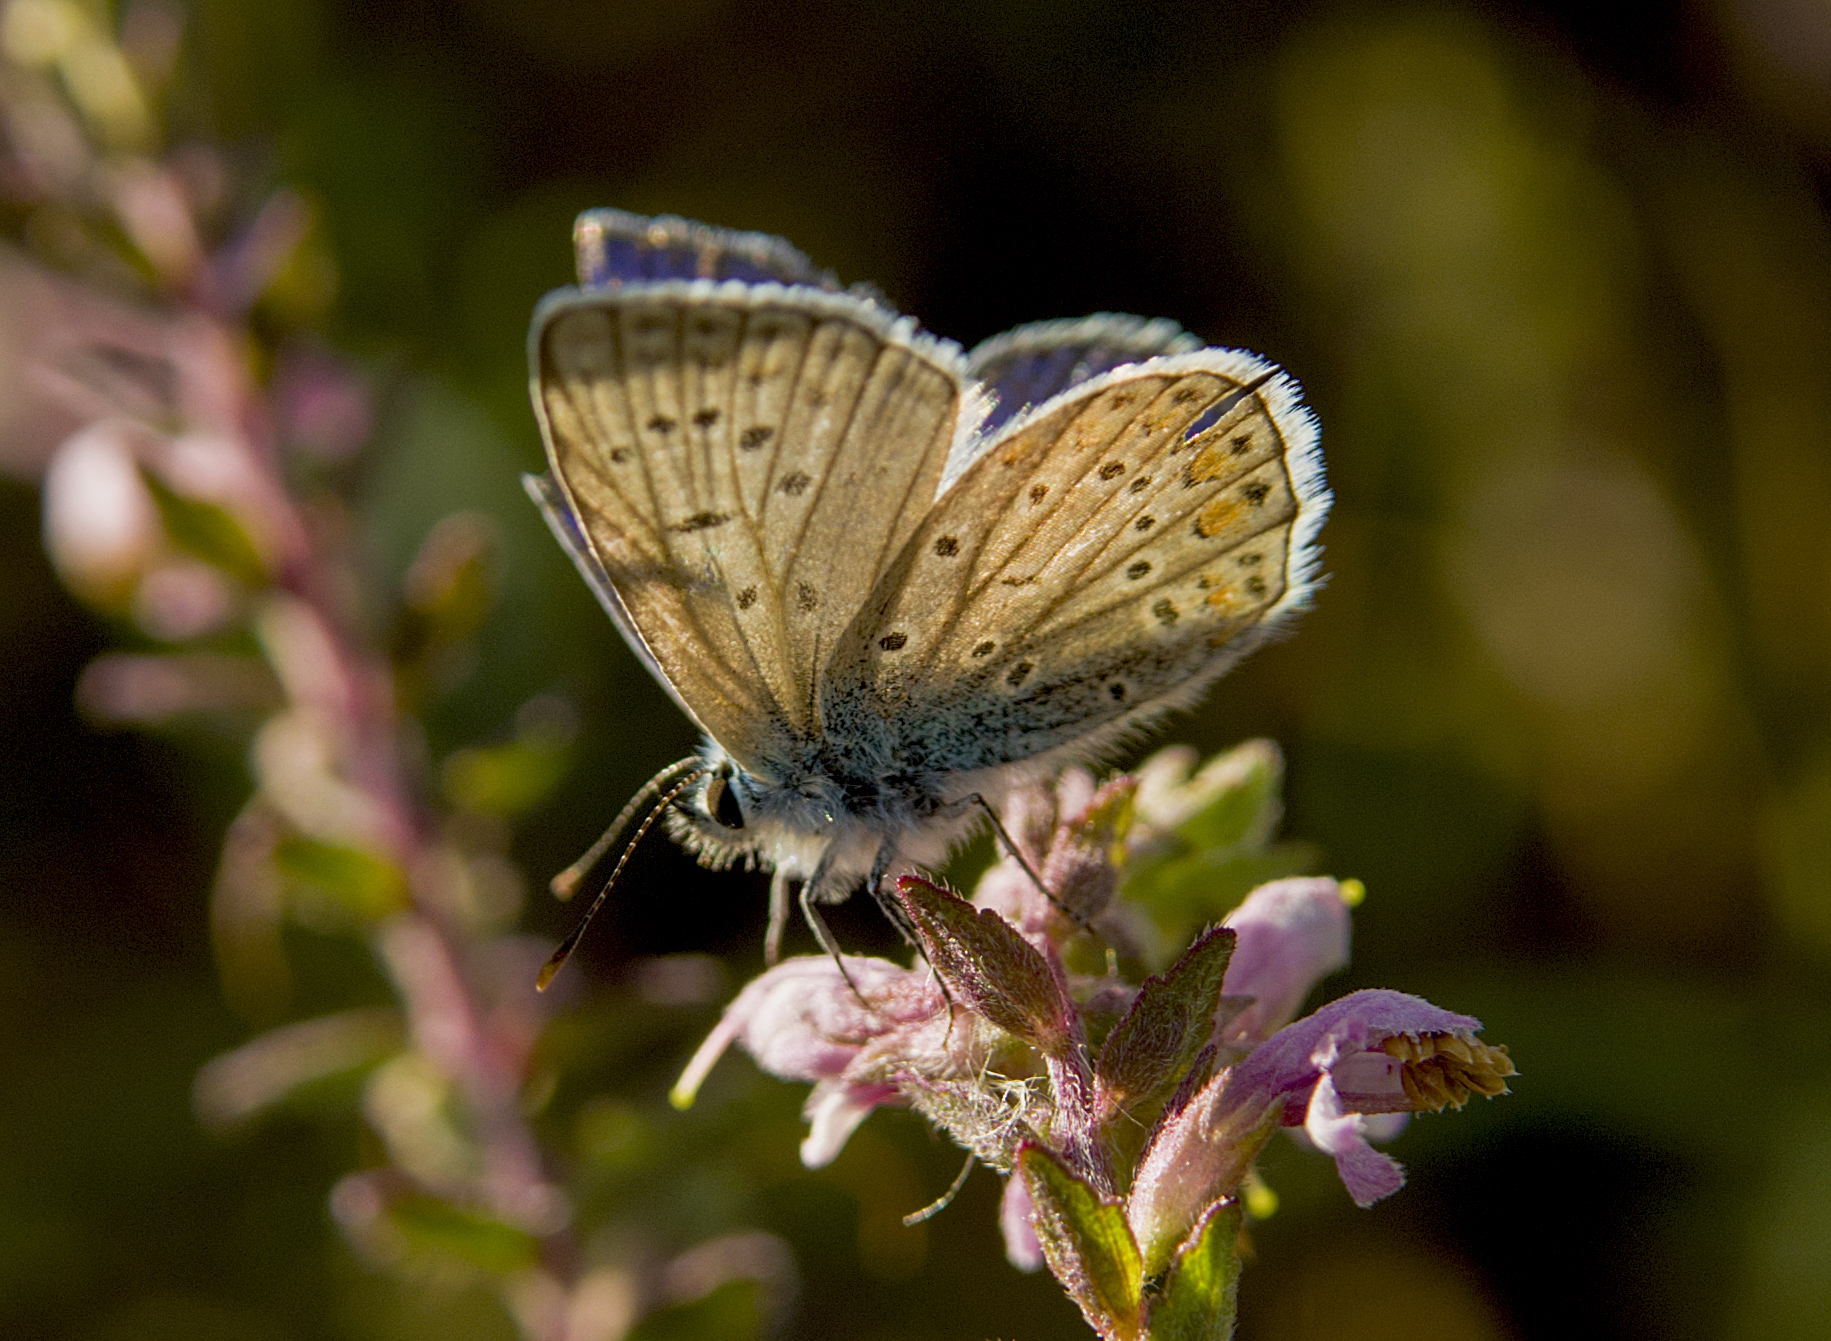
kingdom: Animalia
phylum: Arthropoda
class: Insecta
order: Lepidoptera
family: Lycaenidae
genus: Polyommatus
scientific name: Polyommatus icarus
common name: Common blue
